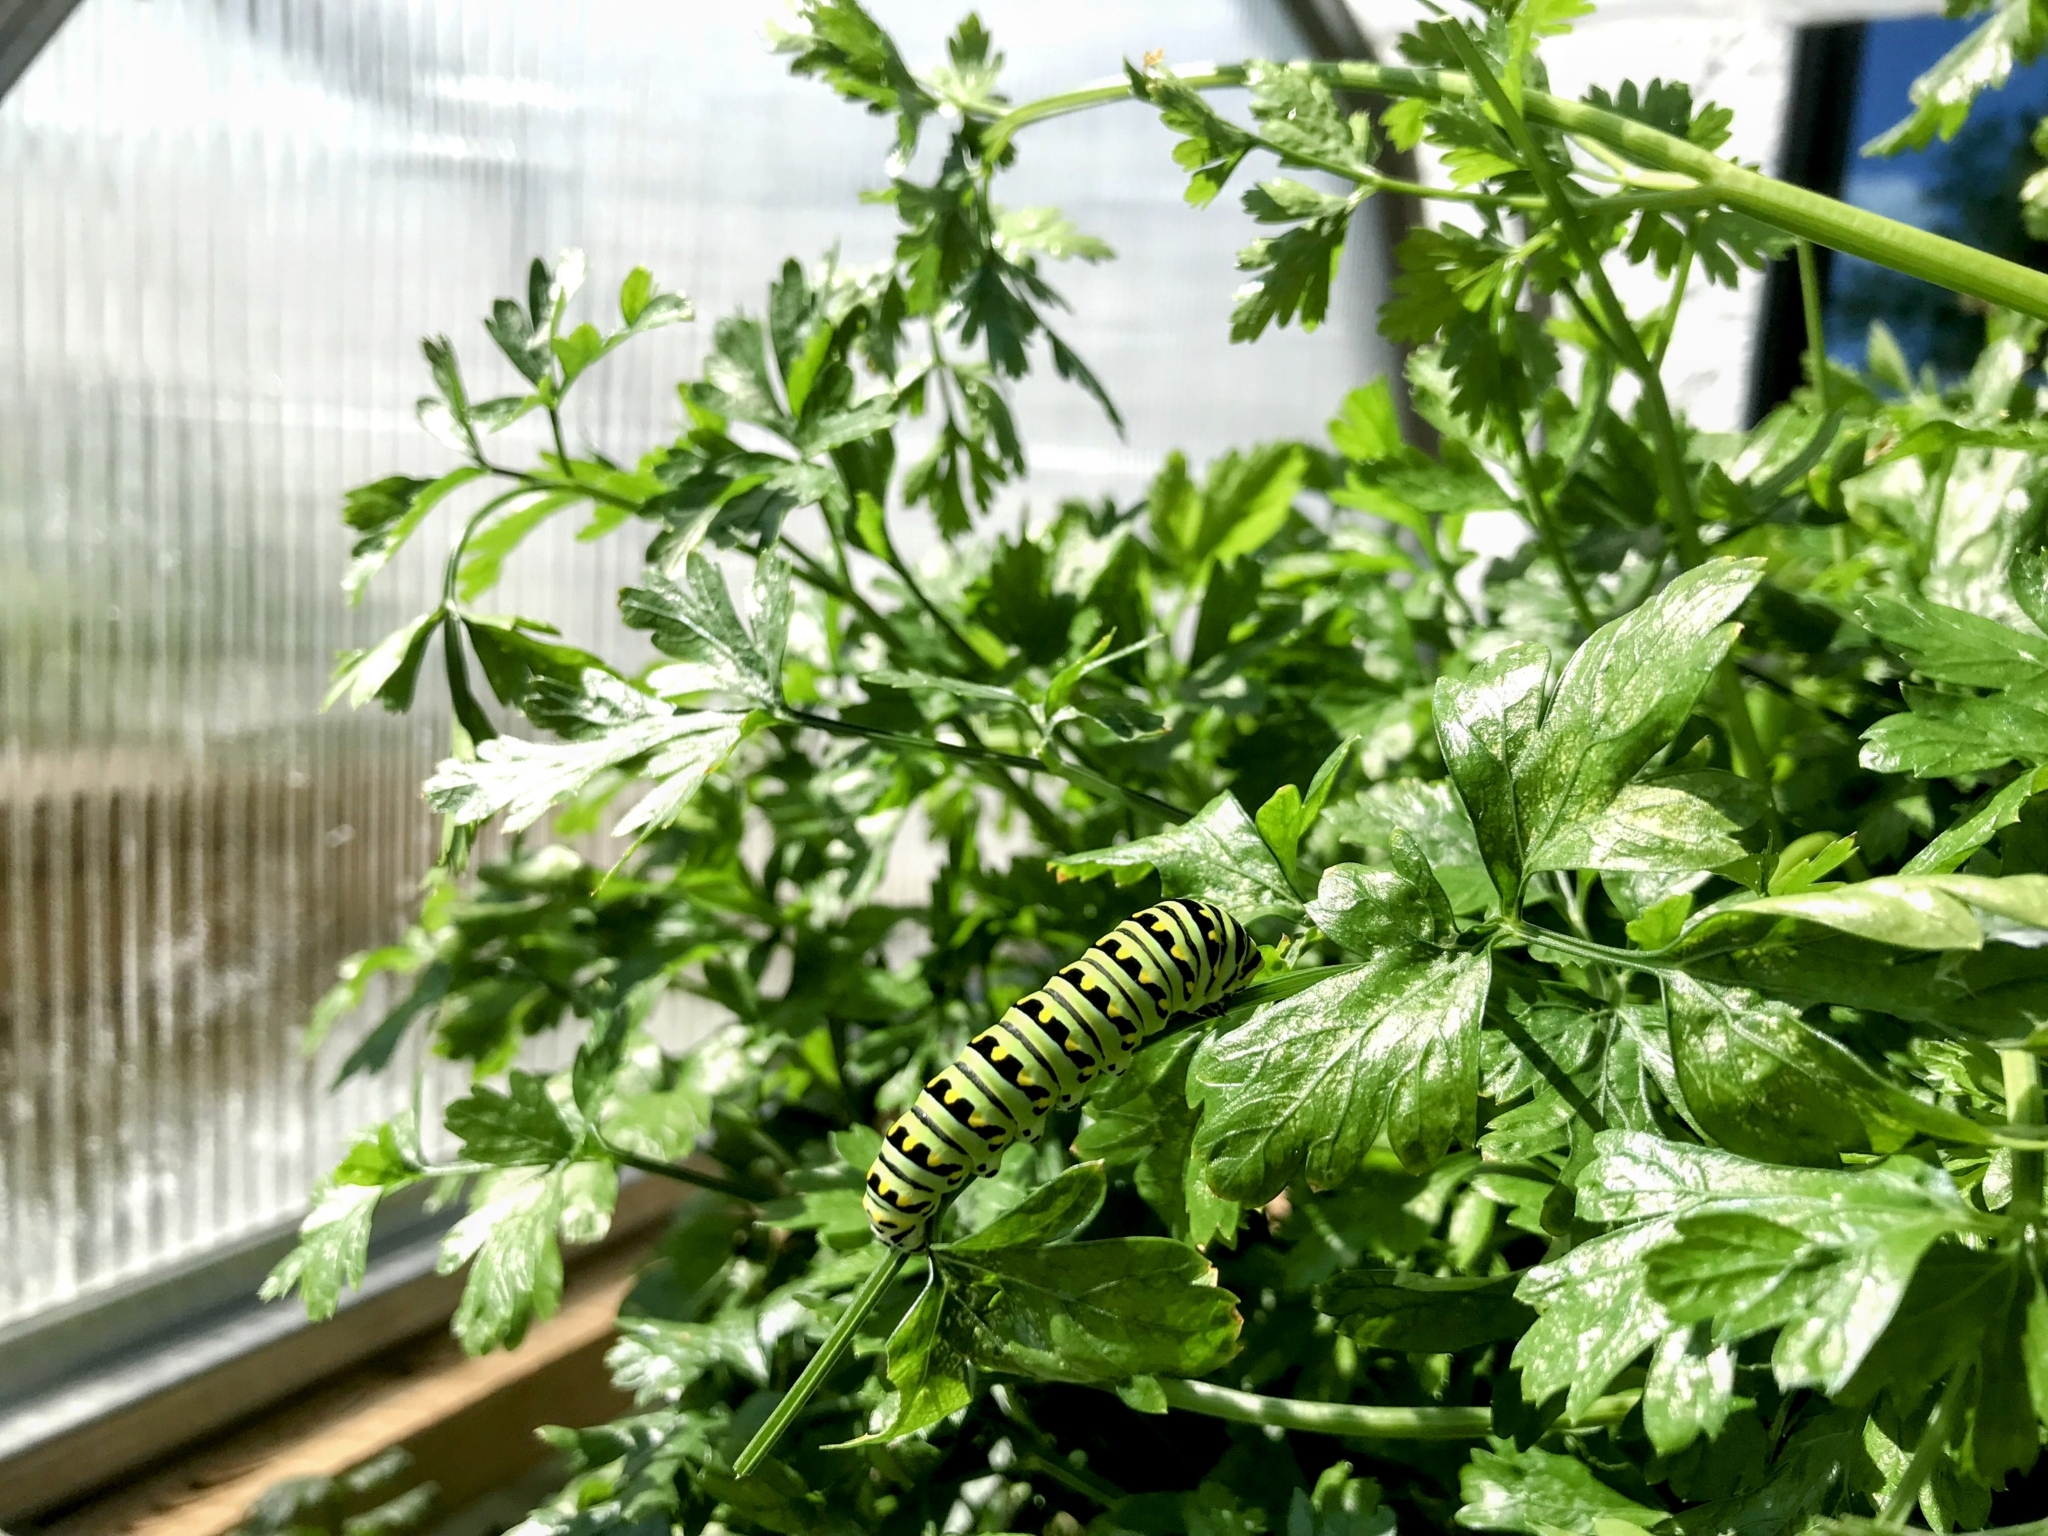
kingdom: Animalia
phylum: Arthropoda
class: Insecta
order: Lepidoptera
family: Papilionidae
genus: Papilio
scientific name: Papilio polyxenes
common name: Black swallowtail
